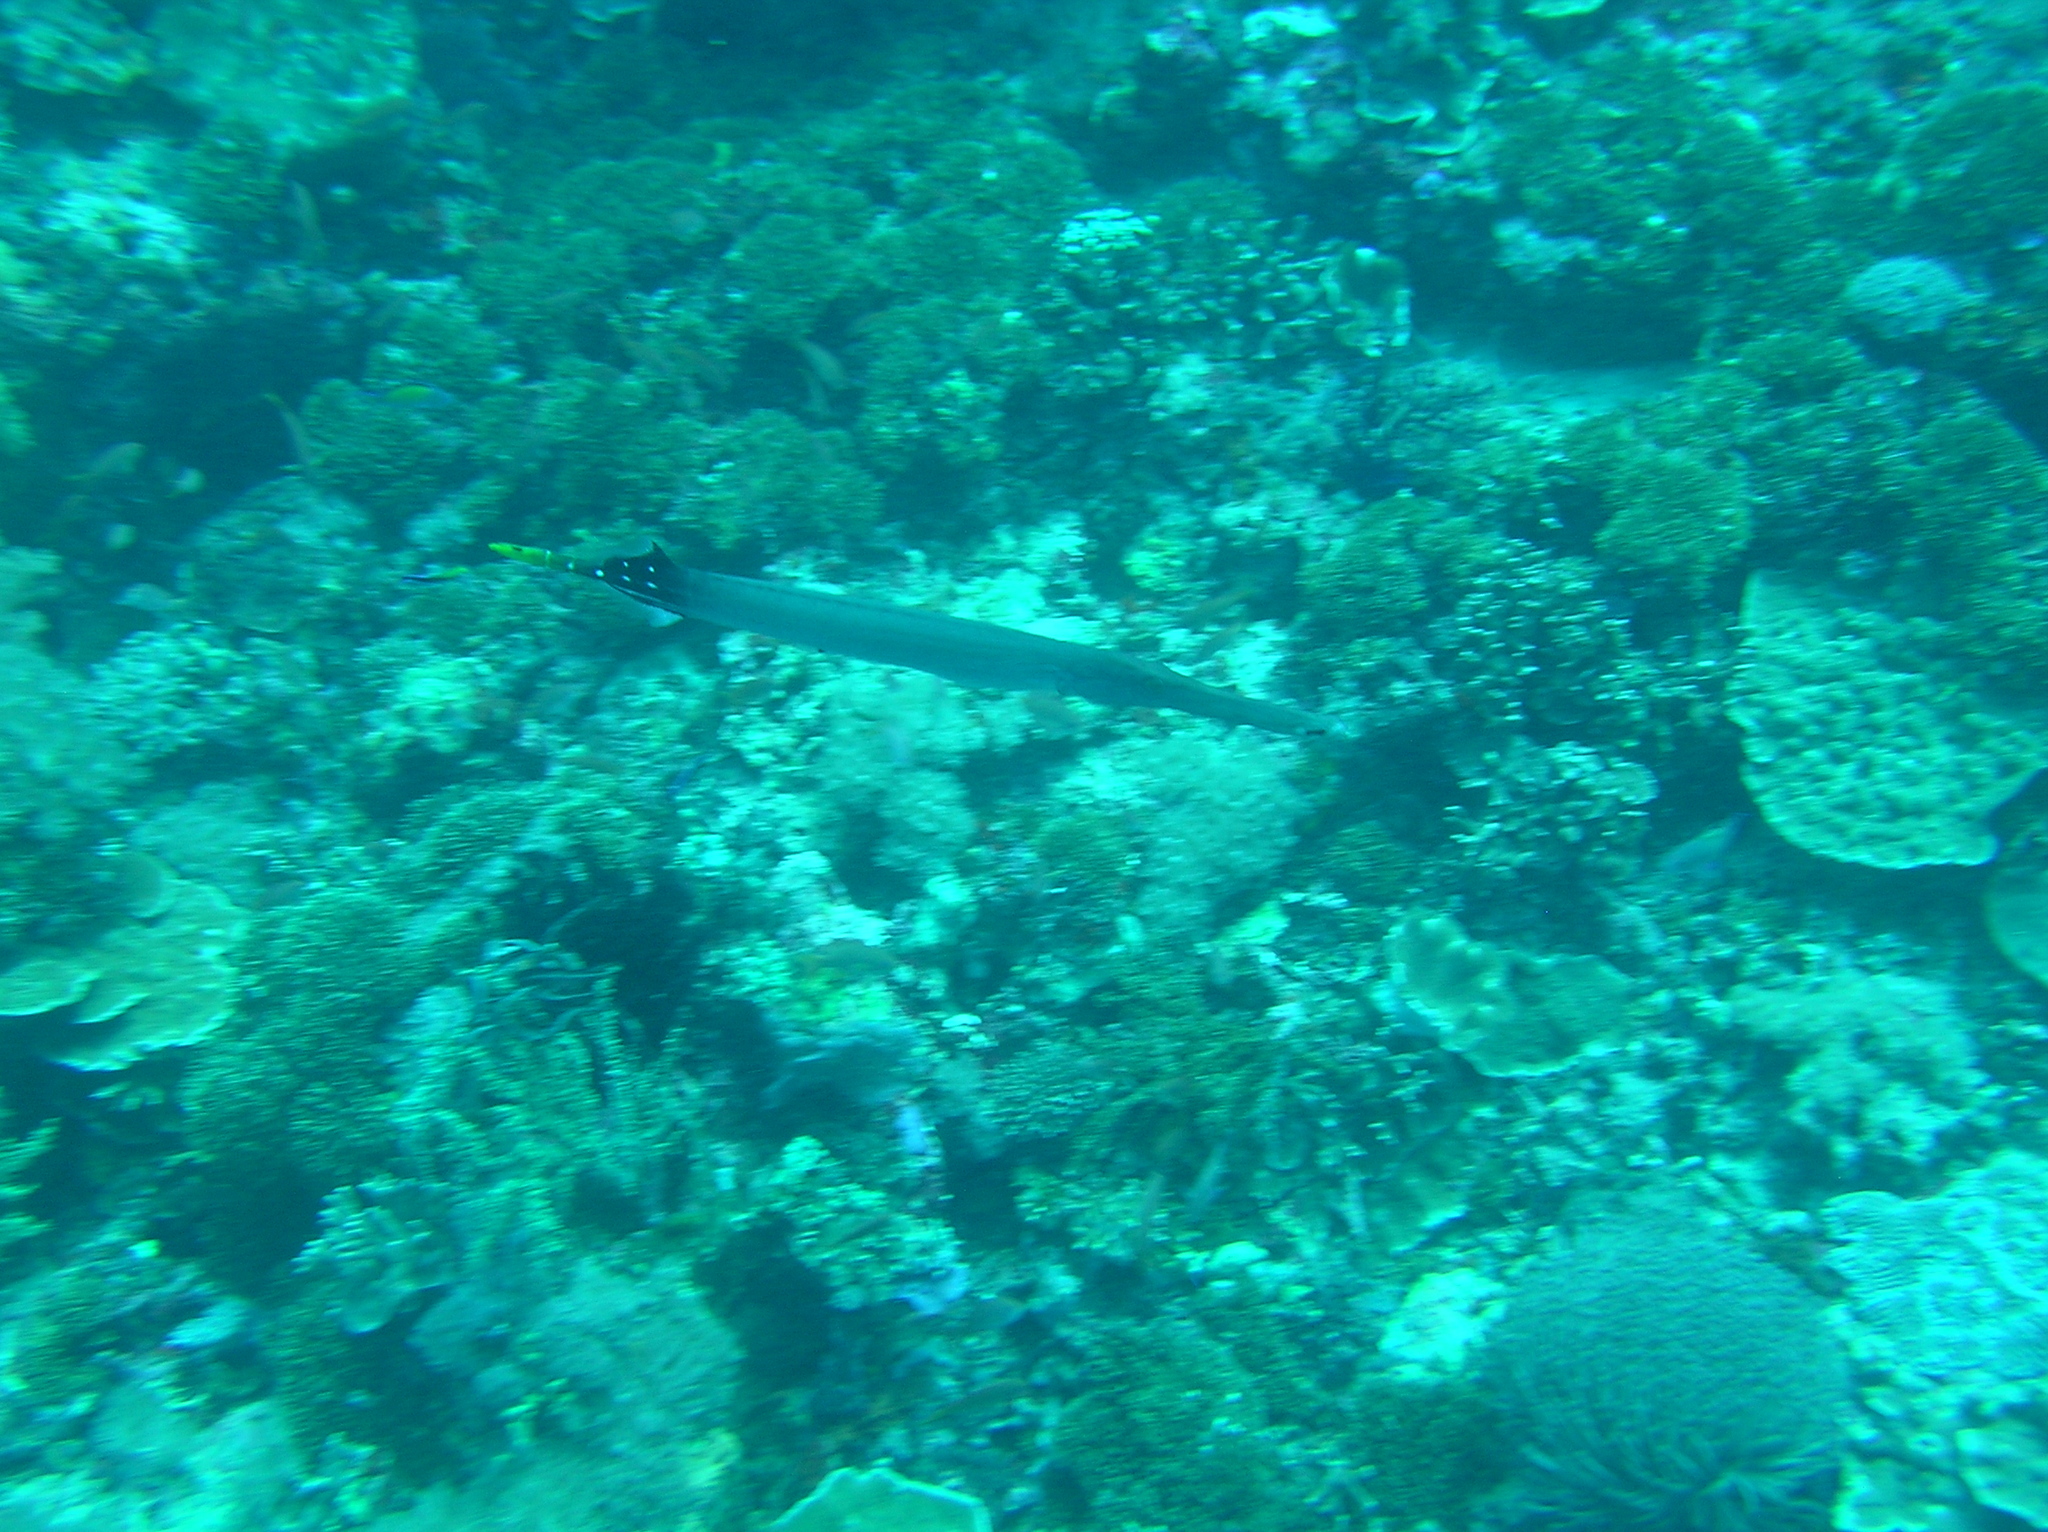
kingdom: Animalia
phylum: Chordata
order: Syngnathiformes
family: Aulostomidae
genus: Aulostomus
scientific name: Aulostomus chinensis
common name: Chinese trumpetfish
